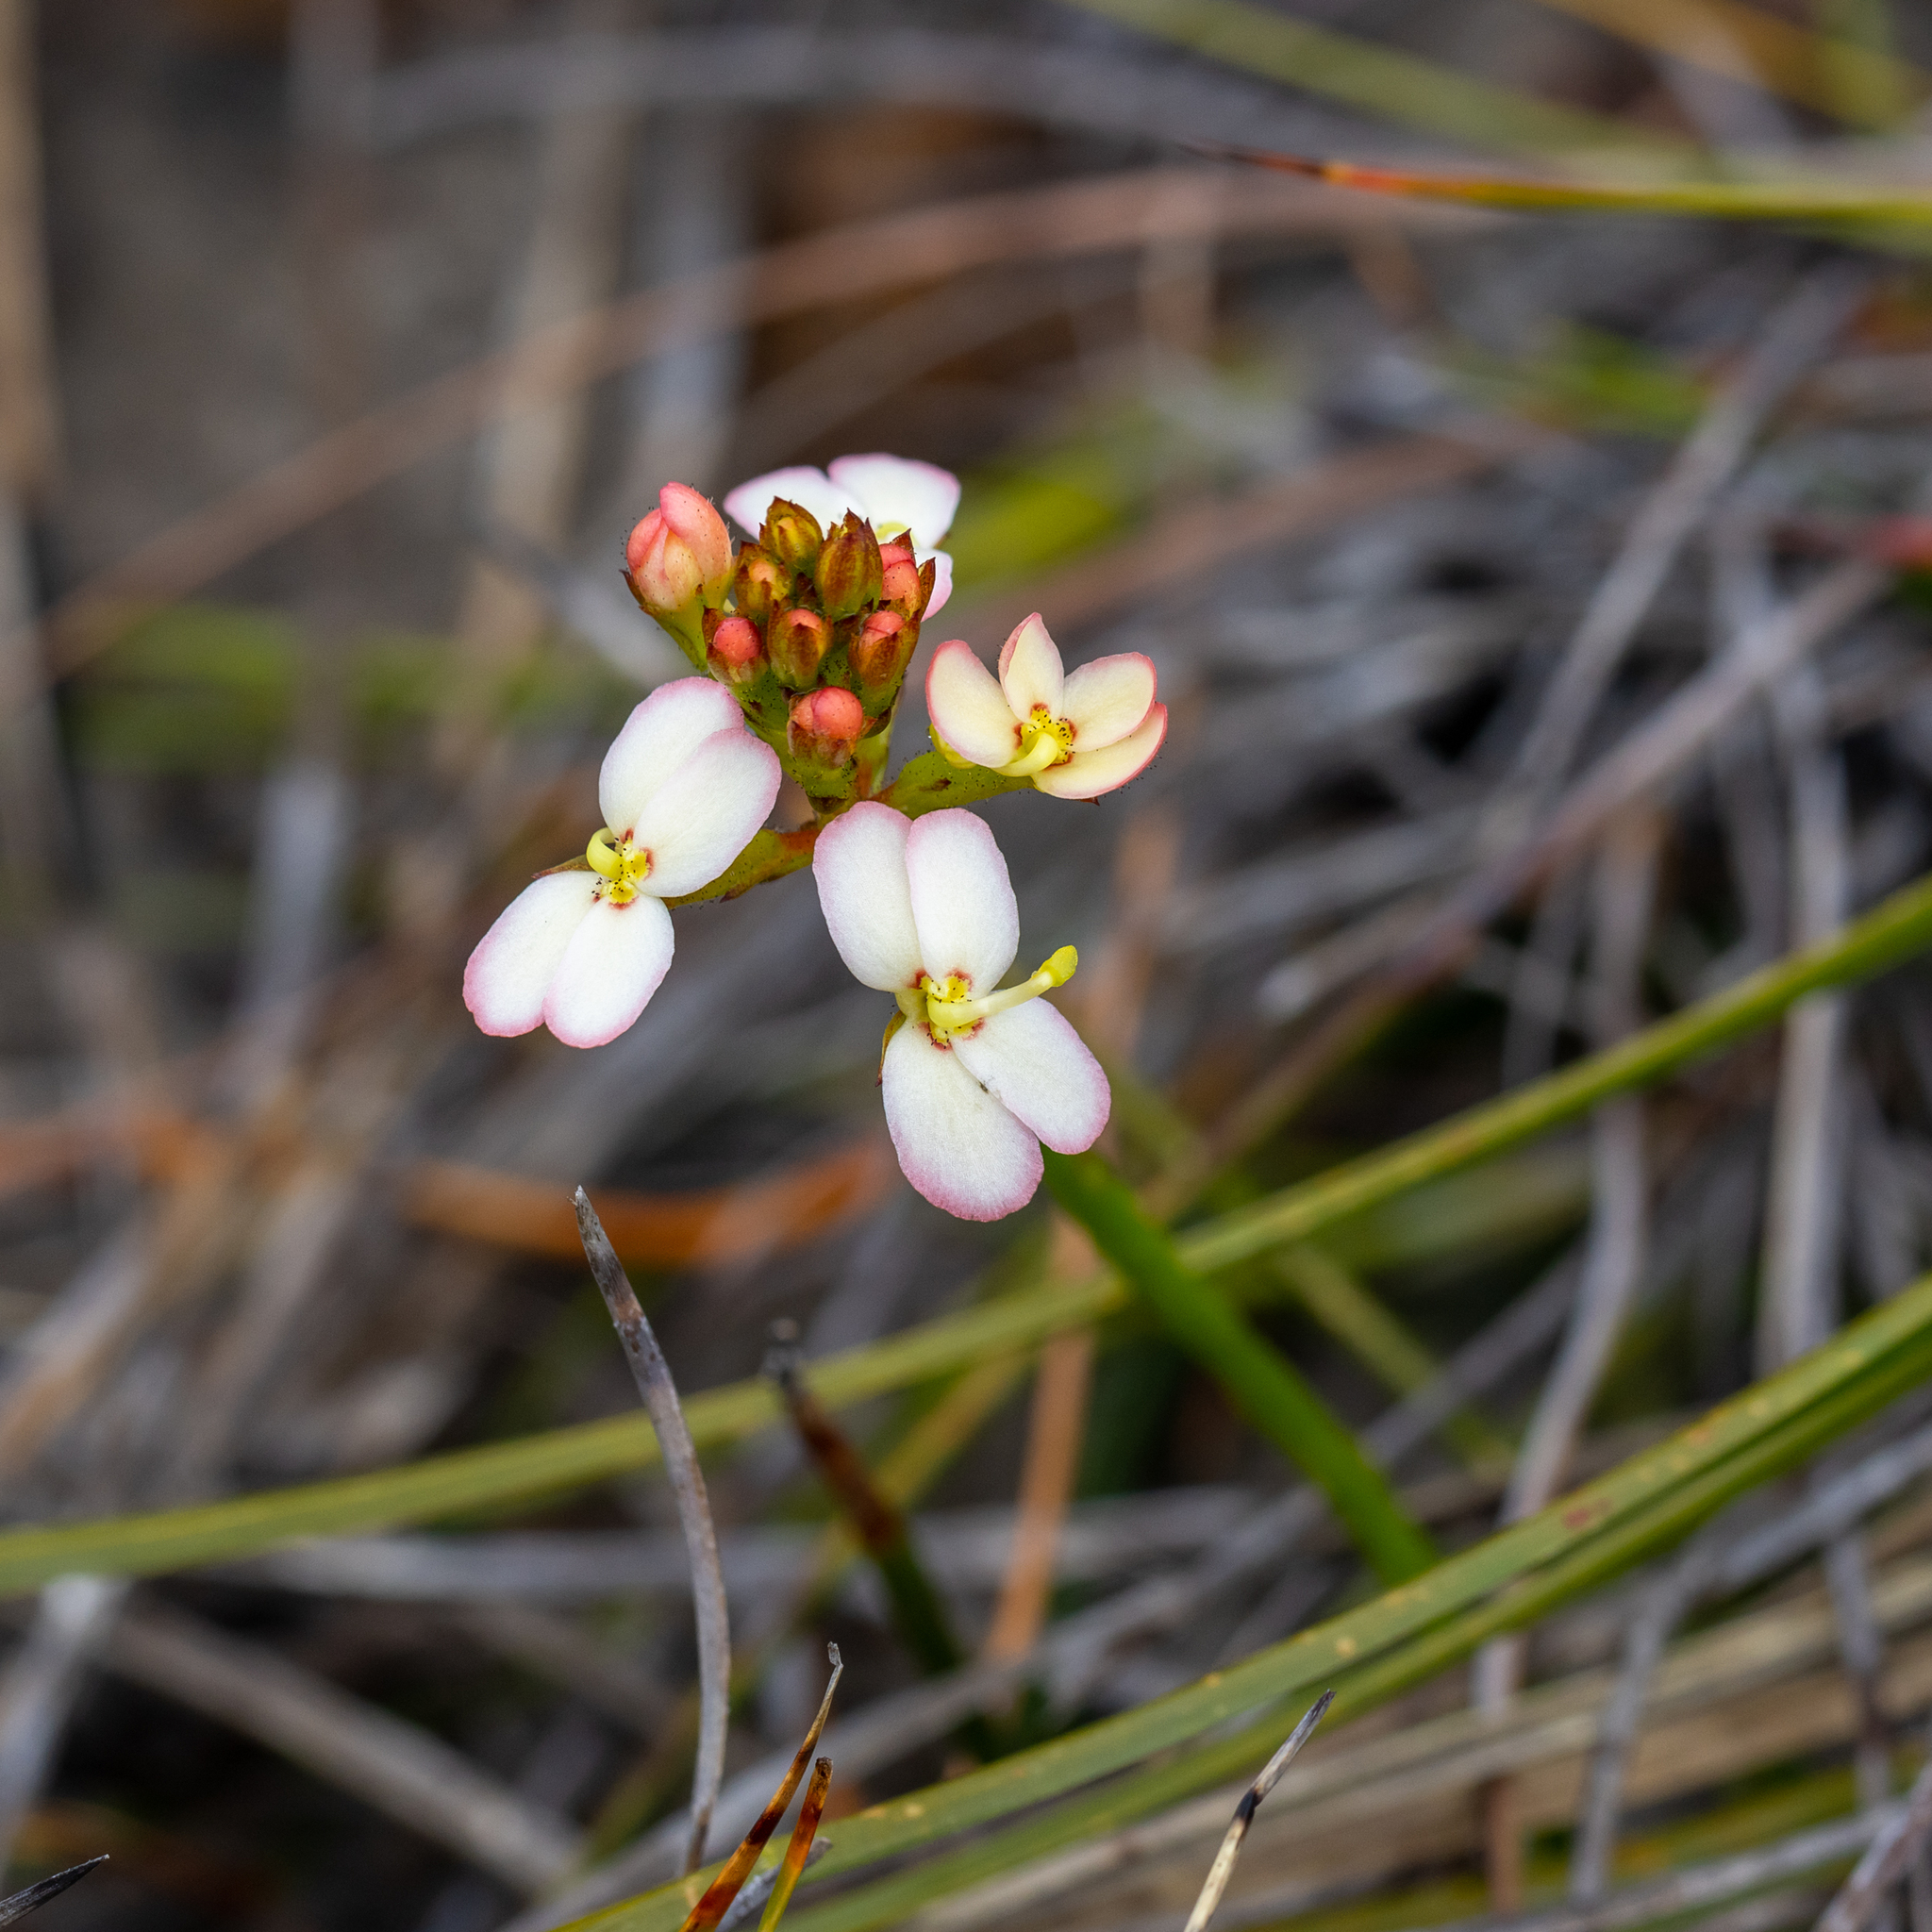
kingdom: Plantae
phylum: Tracheophyta
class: Magnoliopsida
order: Asterales
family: Stylidiaceae
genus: Stylidium
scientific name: Stylidium junceum
